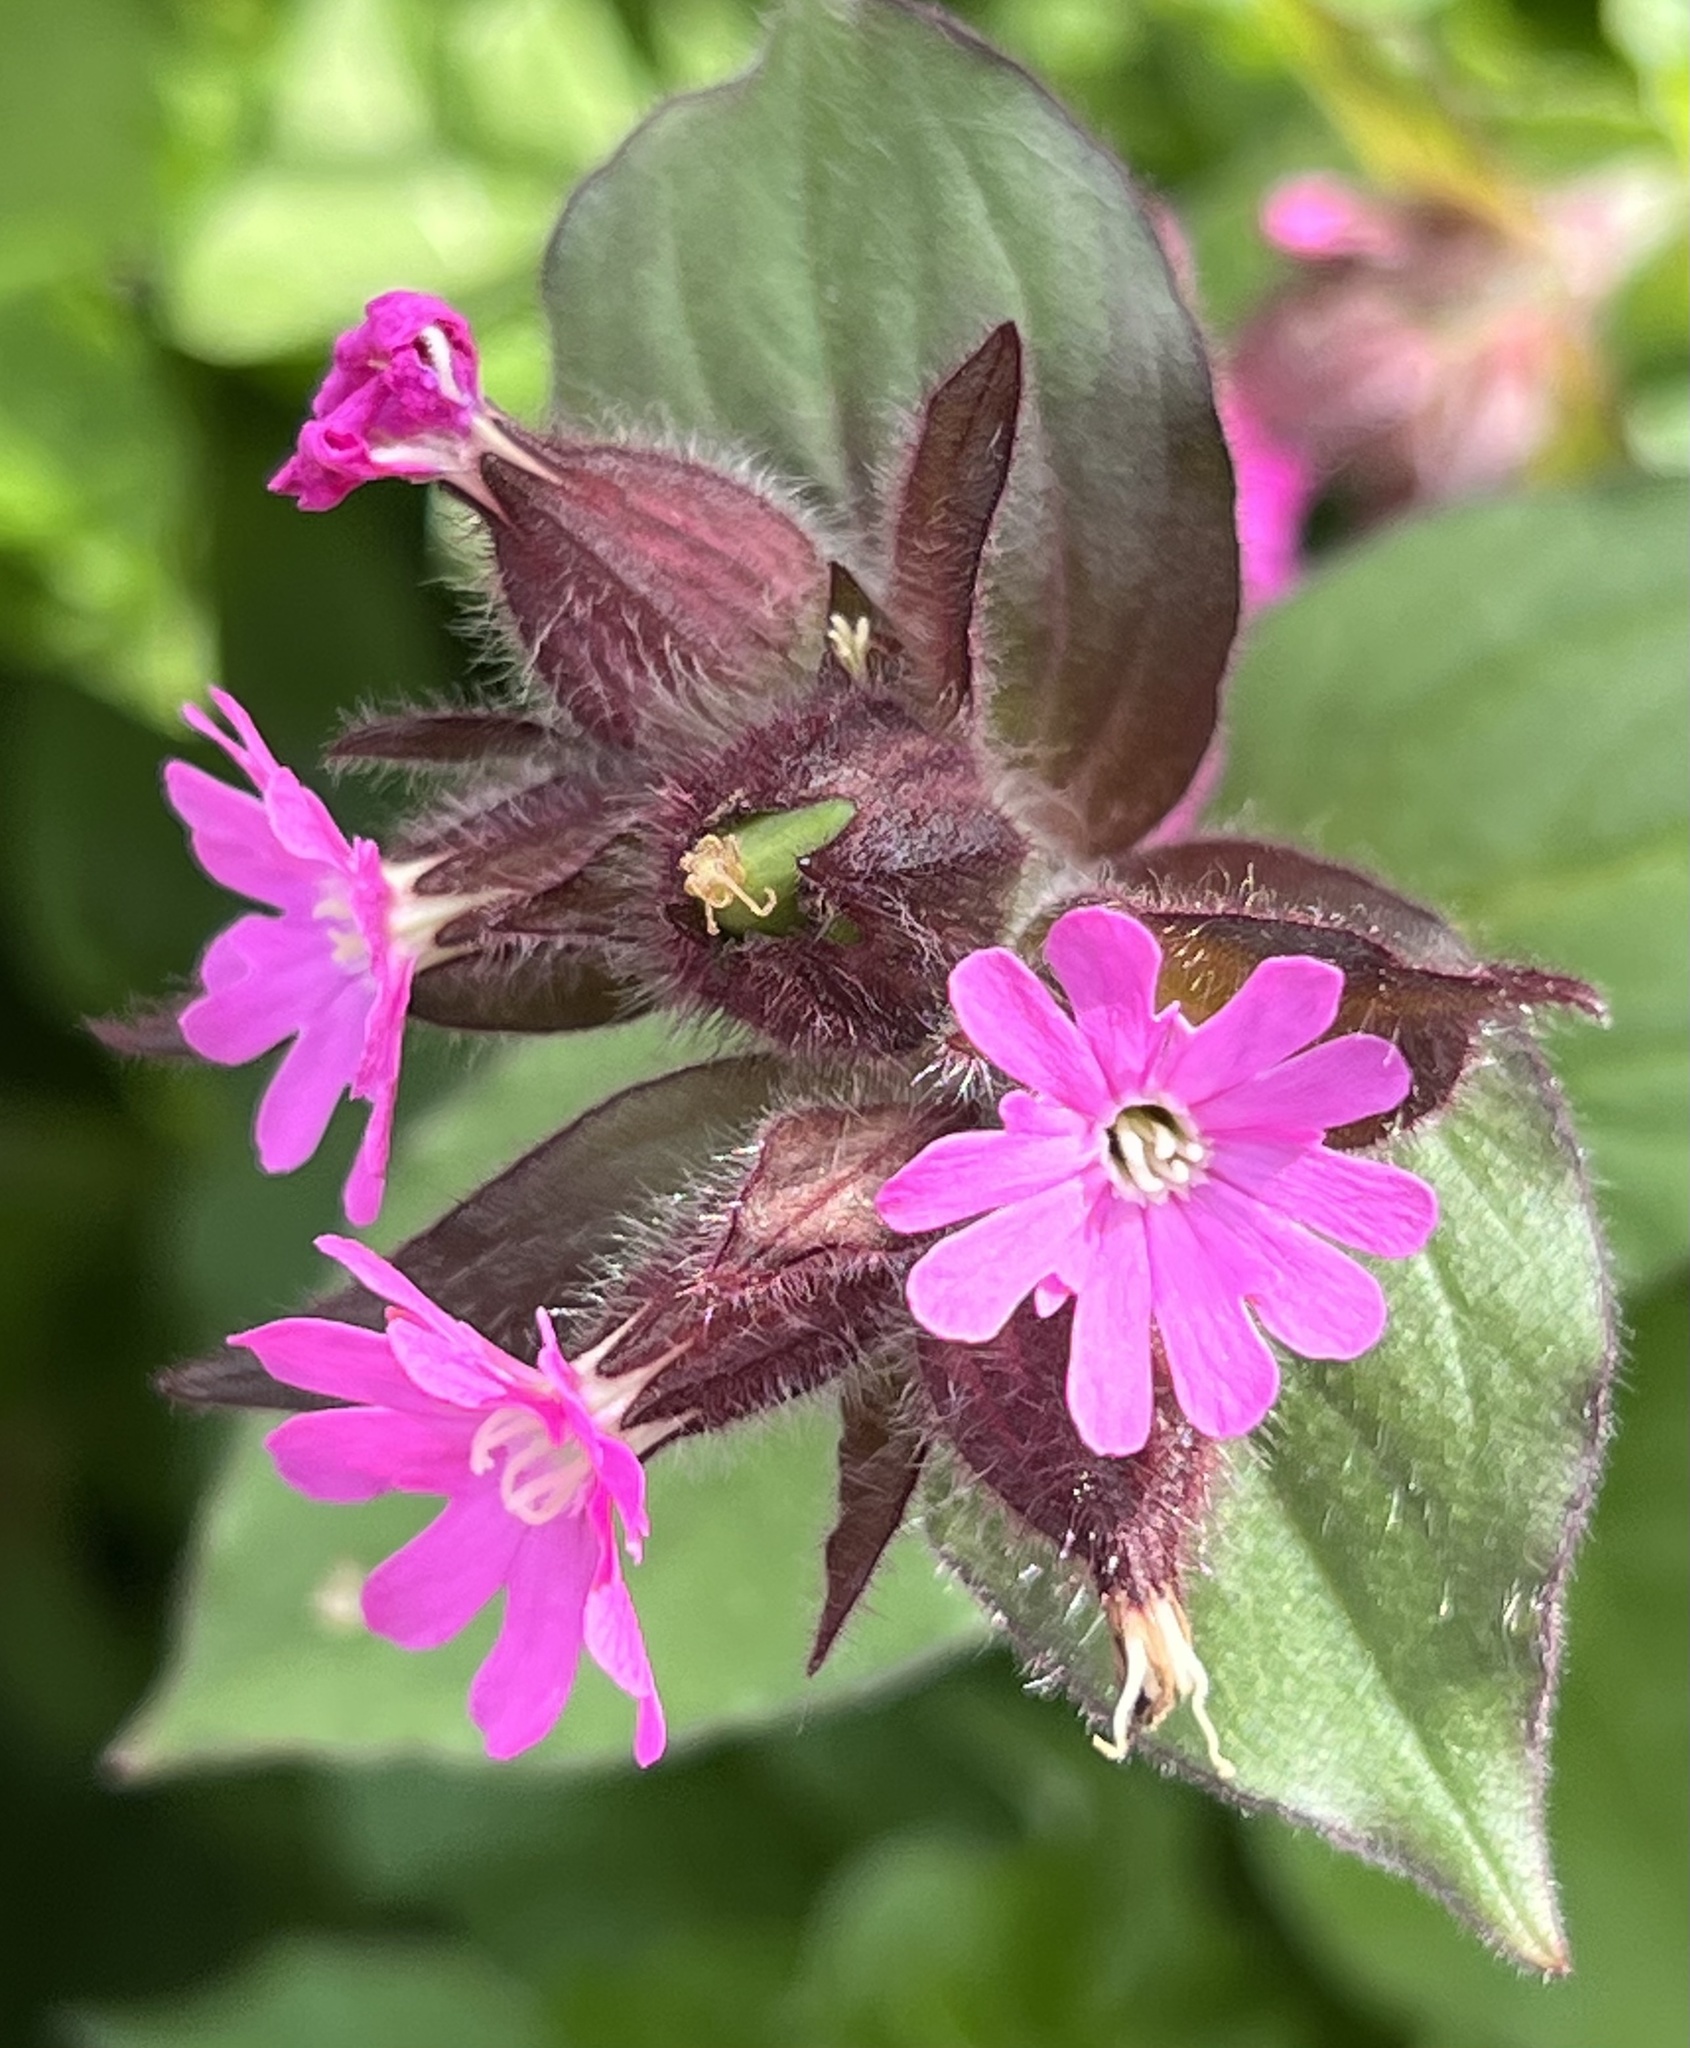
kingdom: Plantae
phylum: Tracheophyta
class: Magnoliopsida
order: Caryophyllales
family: Caryophyllaceae
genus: Silene
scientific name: Silene dioica
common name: Red campion
